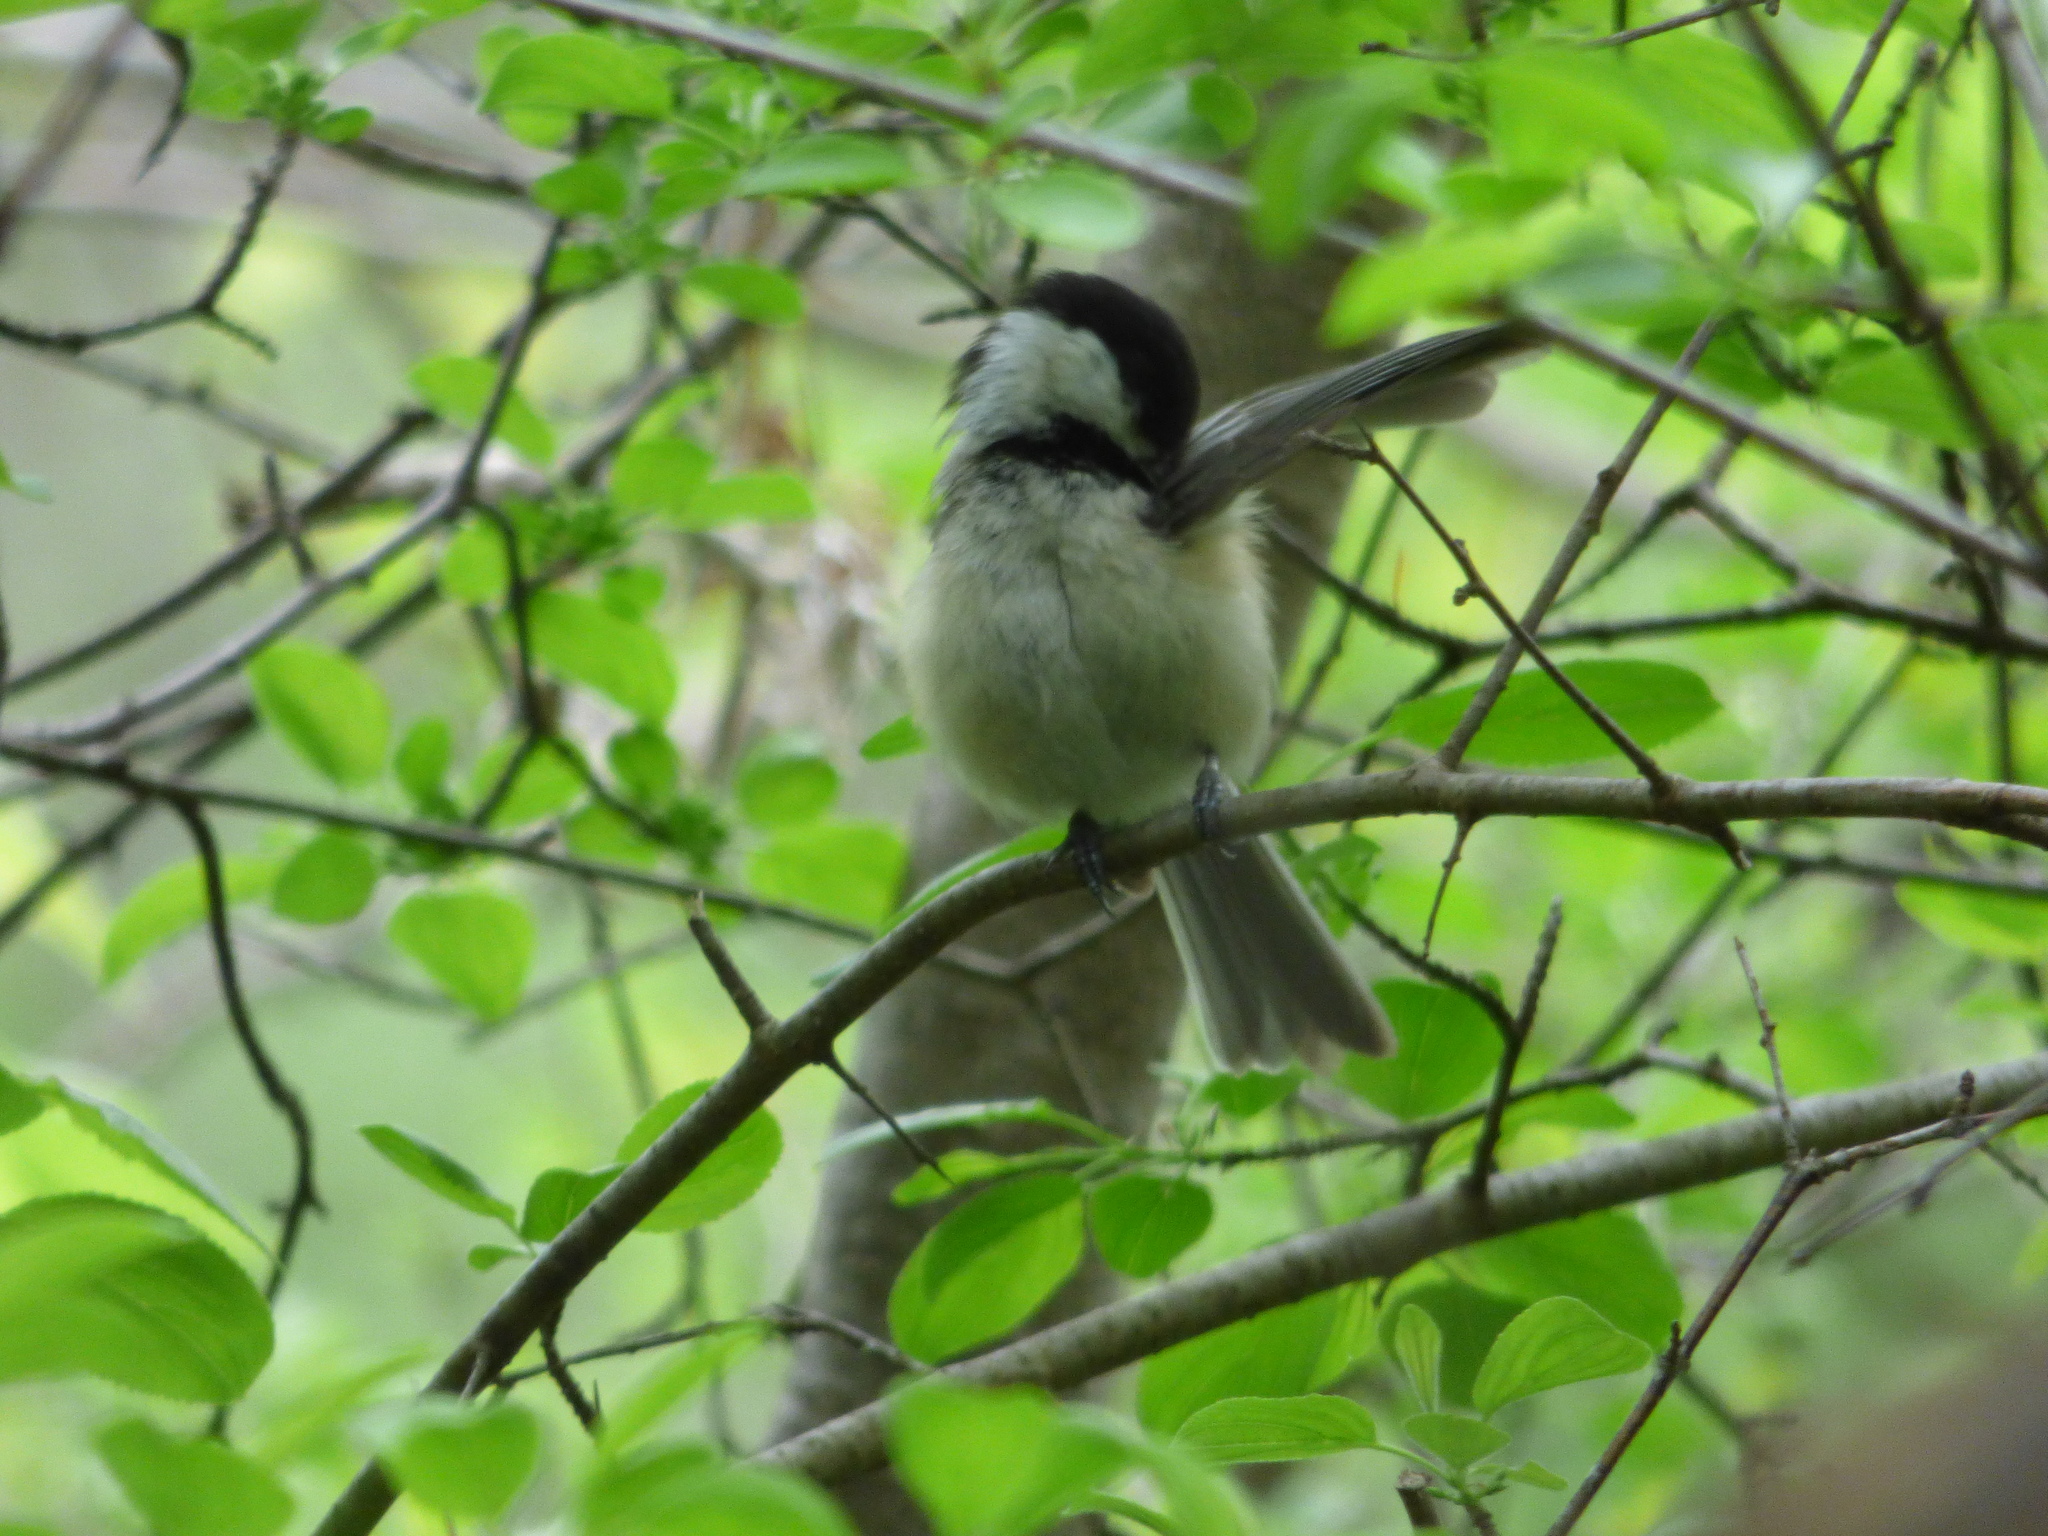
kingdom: Animalia
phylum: Chordata
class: Aves
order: Passeriformes
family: Paridae
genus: Poecile
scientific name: Poecile atricapillus
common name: Black-capped chickadee
